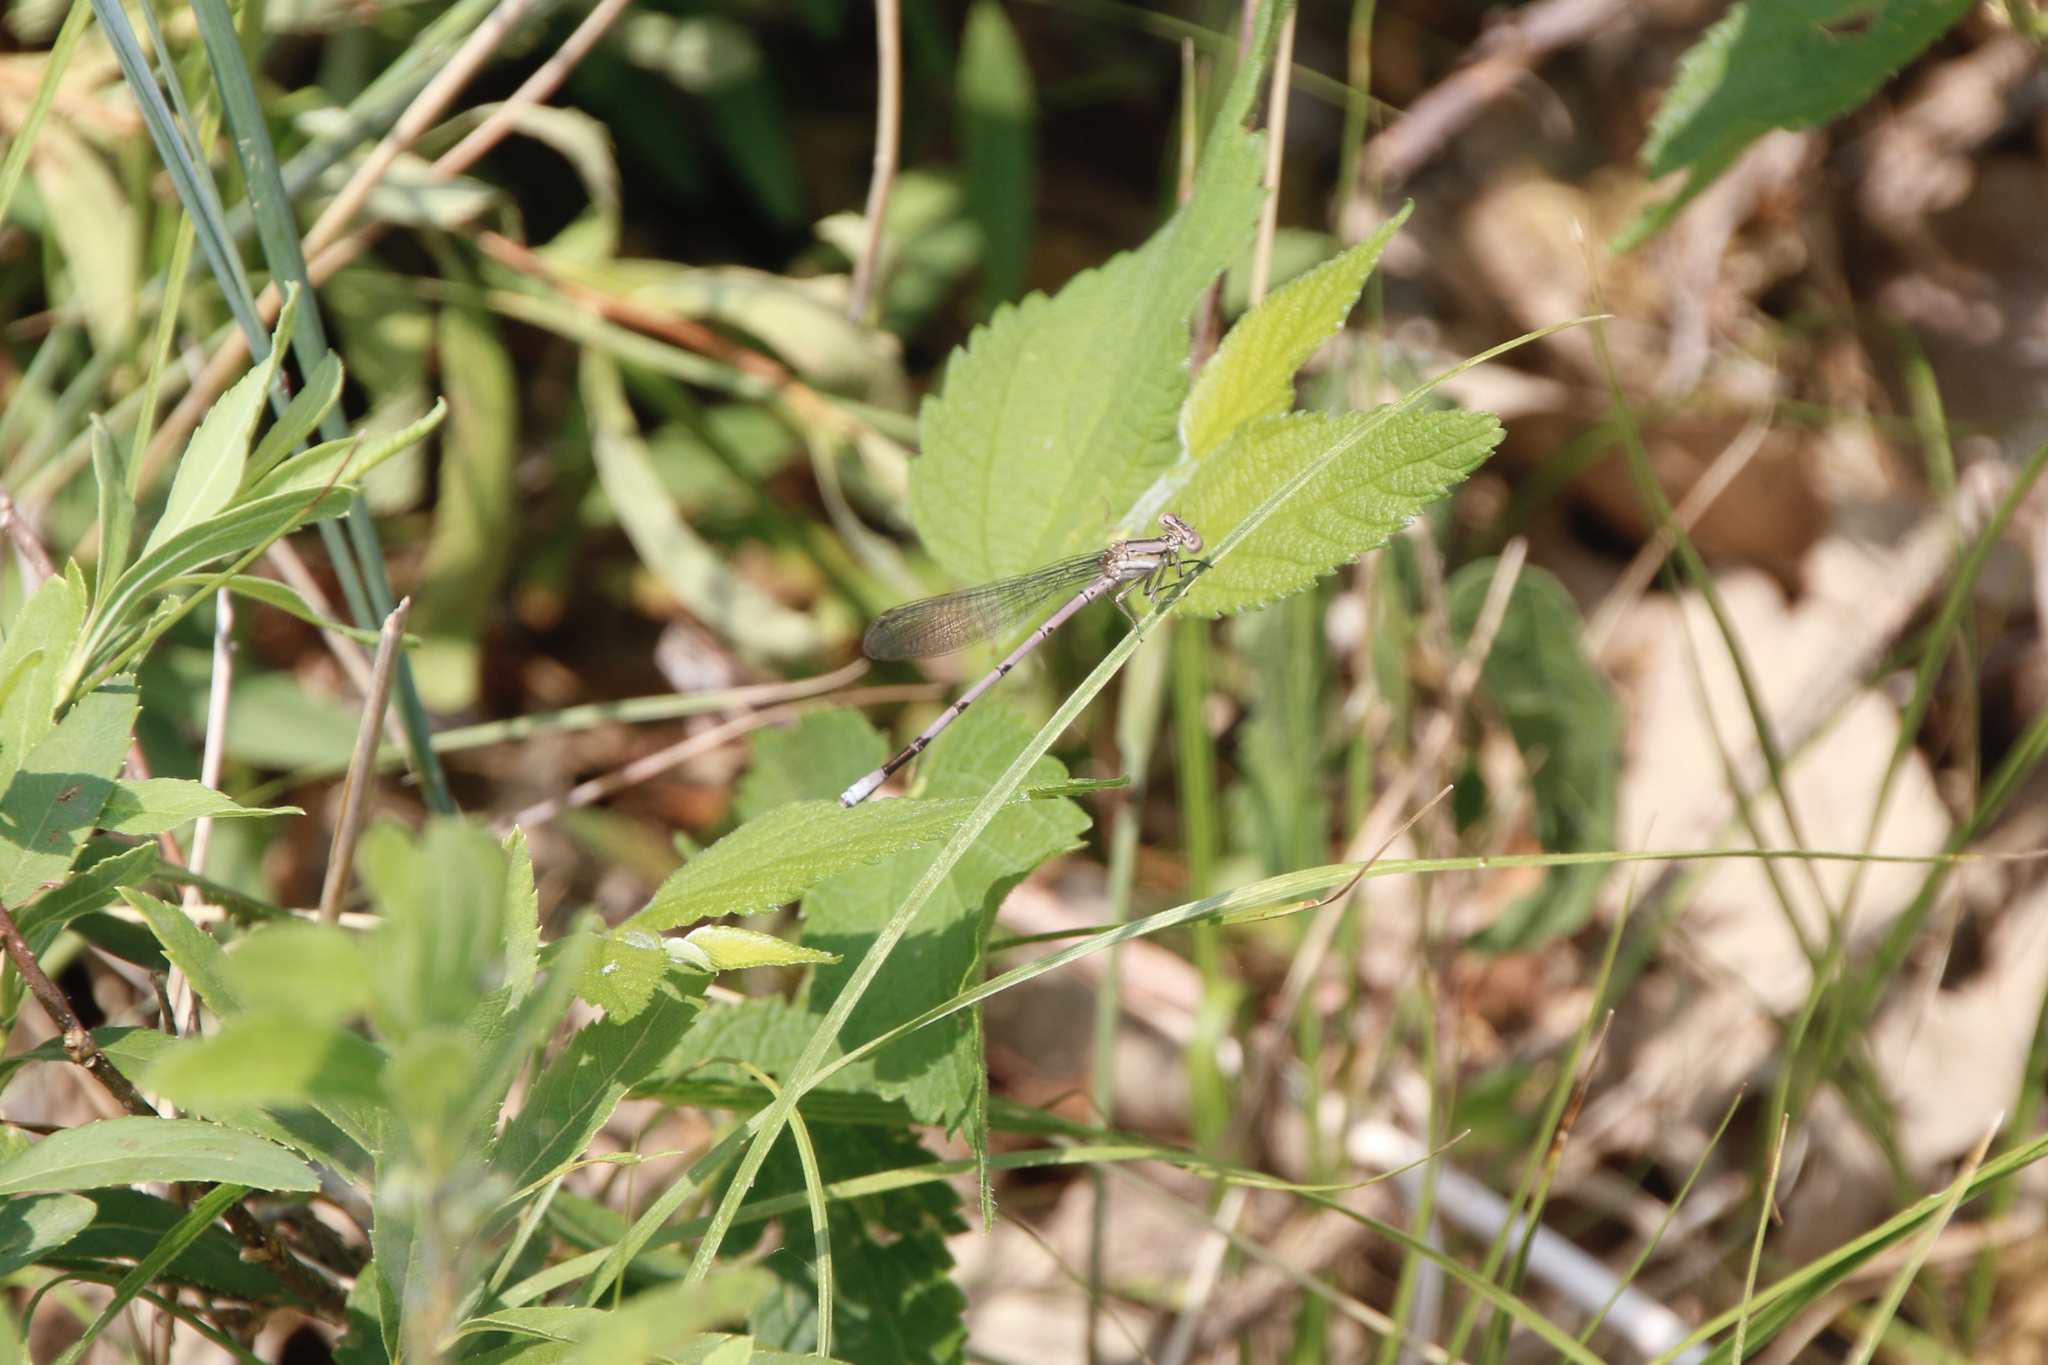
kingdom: Animalia
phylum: Arthropoda
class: Insecta
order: Odonata
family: Coenagrionidae
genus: Argia
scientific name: Argia fumipennis
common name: Variable dancer
